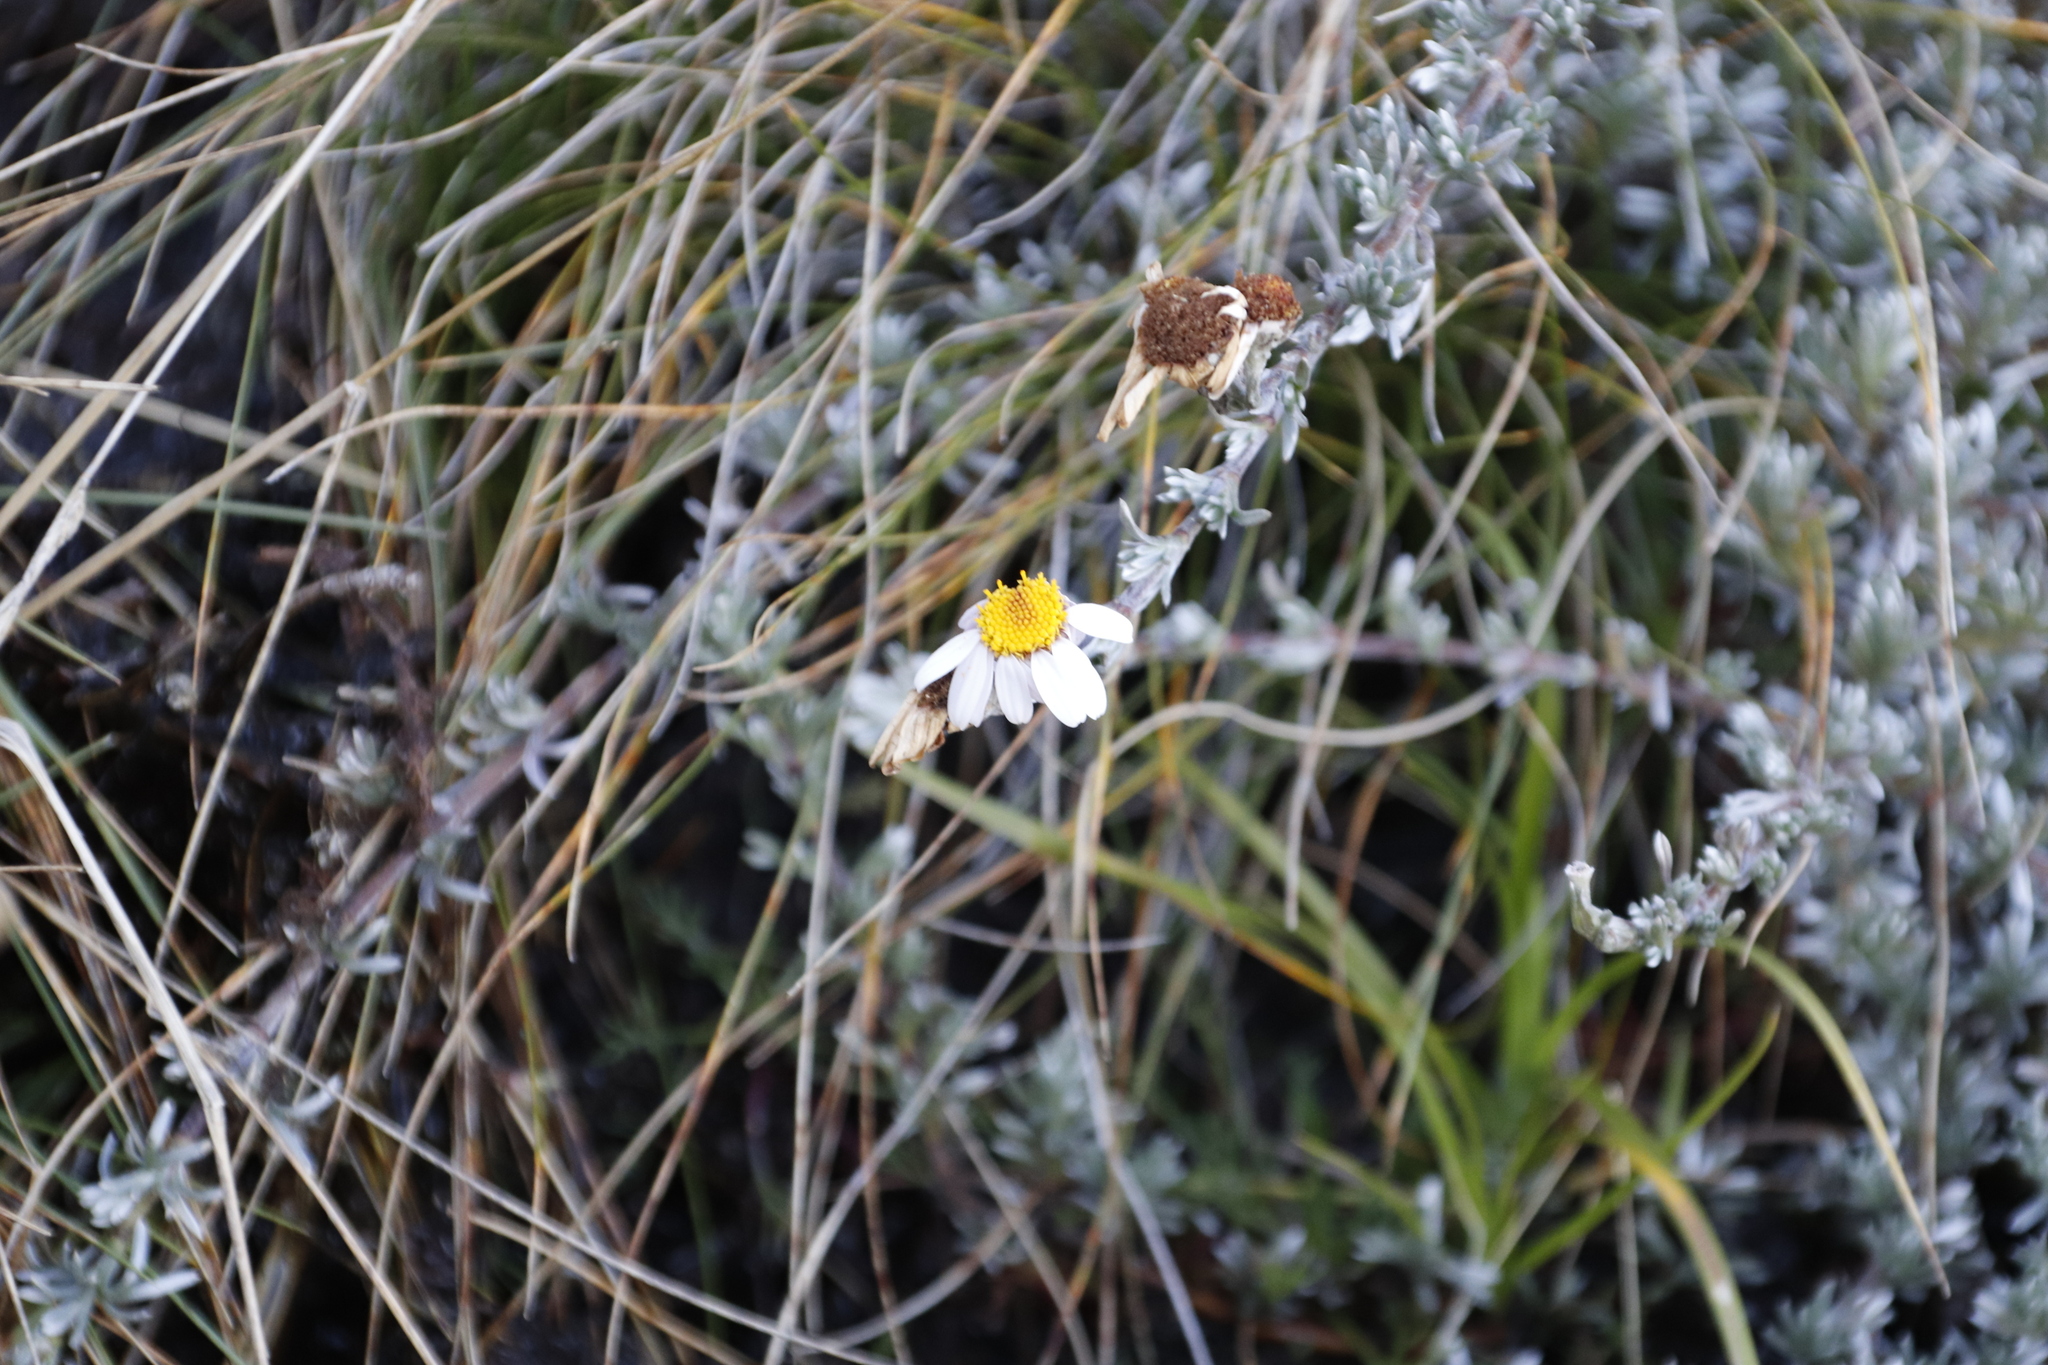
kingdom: Plantae
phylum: Tracheophyta
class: Magnoliopsida
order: Asterales
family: Asteraceae
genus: Eumorphia
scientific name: Eumorphia prostrata
